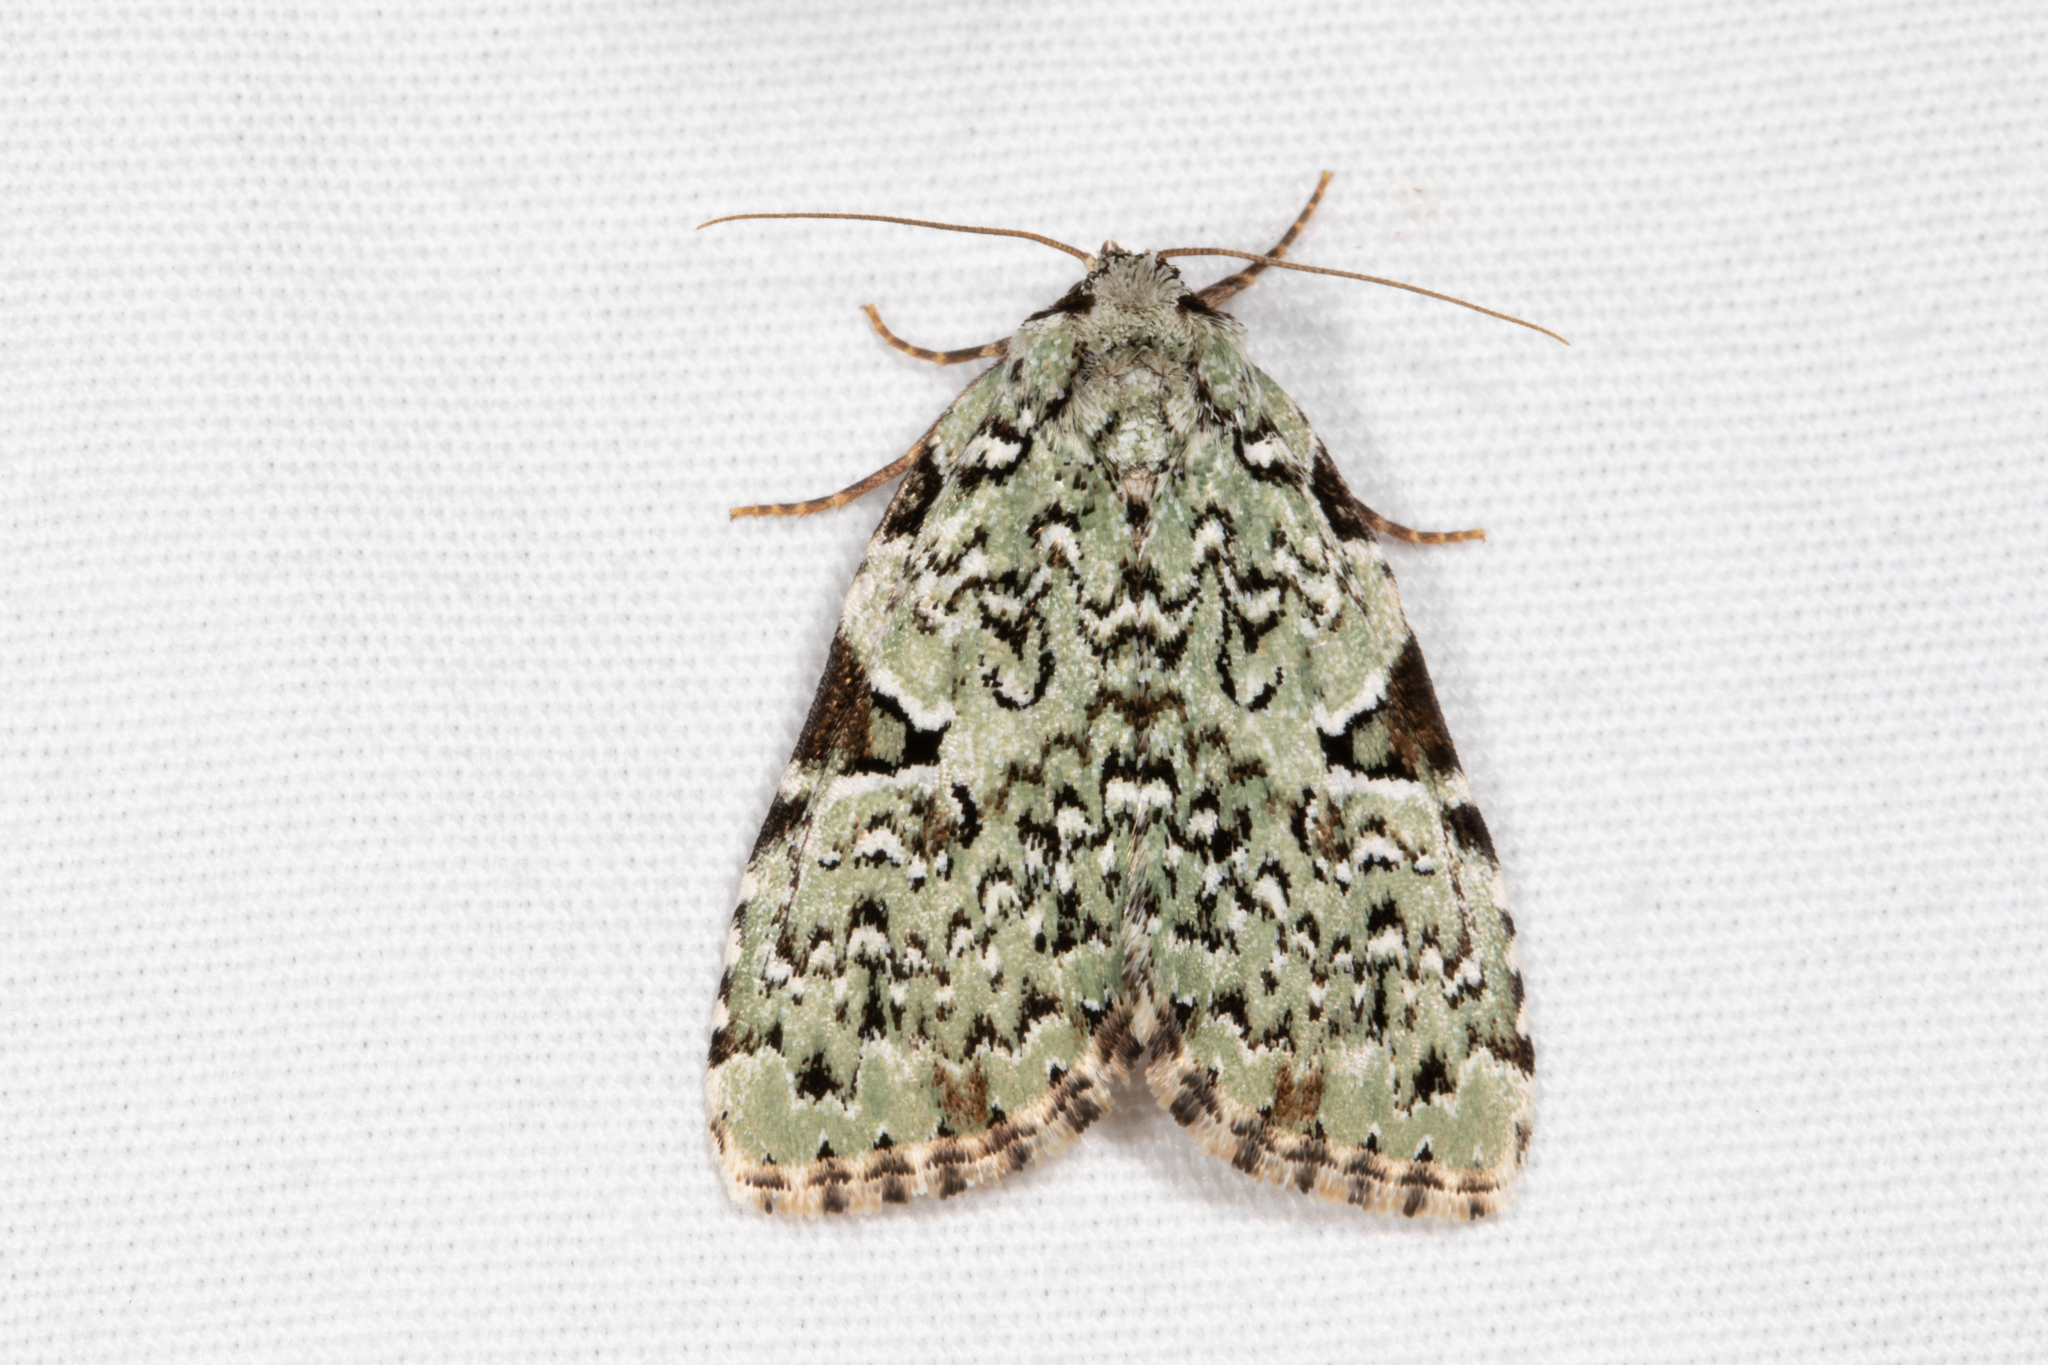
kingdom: Animalia
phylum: Arthropoda
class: Insecta
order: Lepidoptera
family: Noctuidae
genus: Leuconycta
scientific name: Leuconycta diphteroides
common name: Green leuconycta moth
